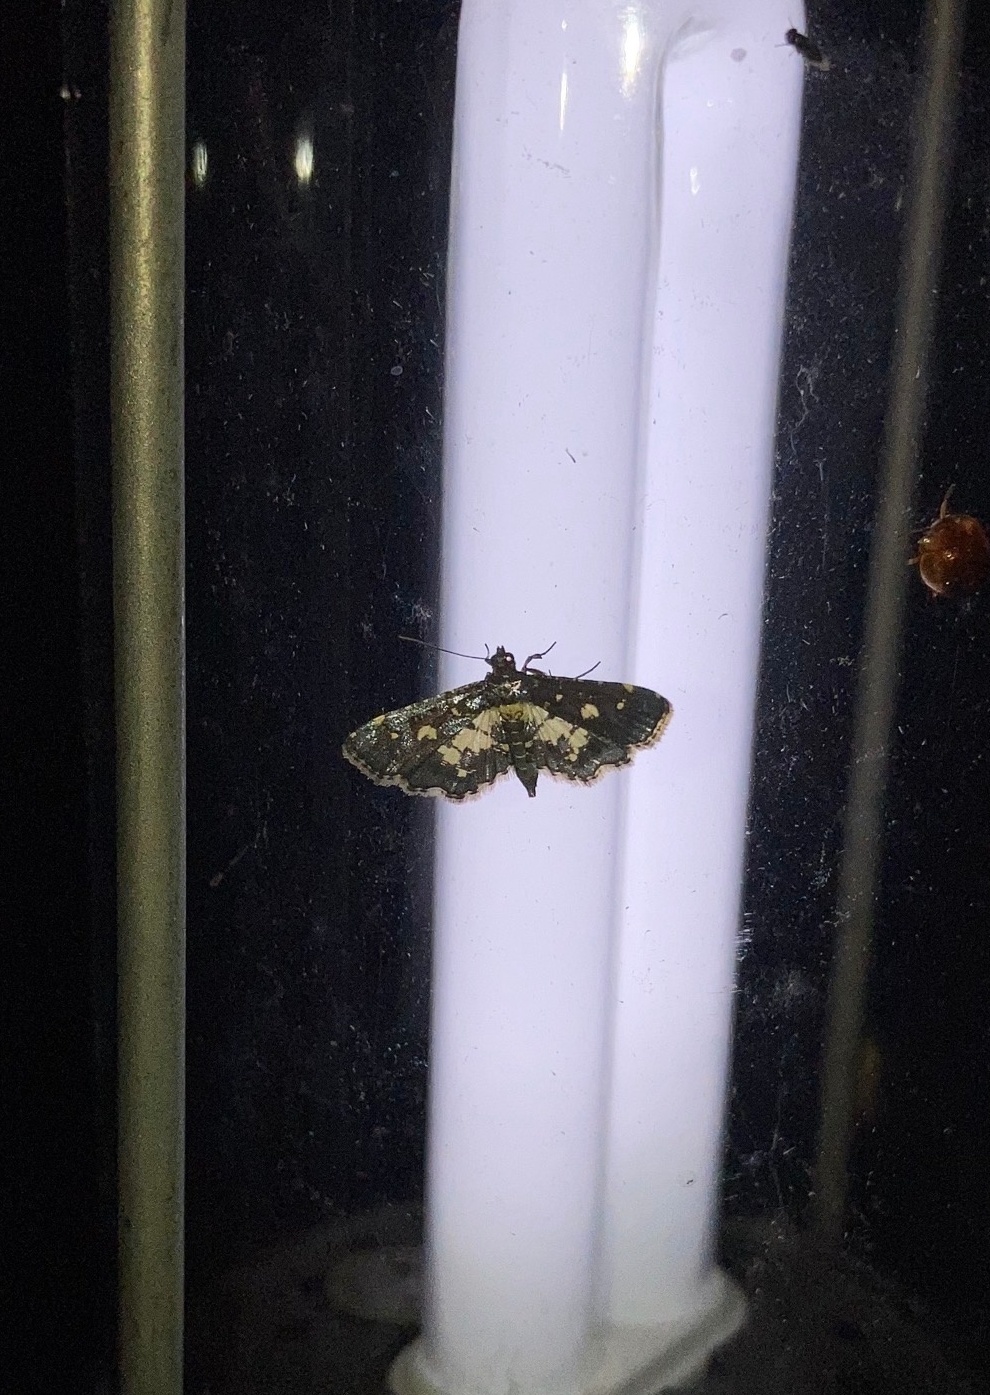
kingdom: Animalia
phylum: Arthropoda
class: Insecta
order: Lepidoptera
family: Crambidae
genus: Eurrhyparodes
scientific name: Eurrhyparodes bracteolalis
